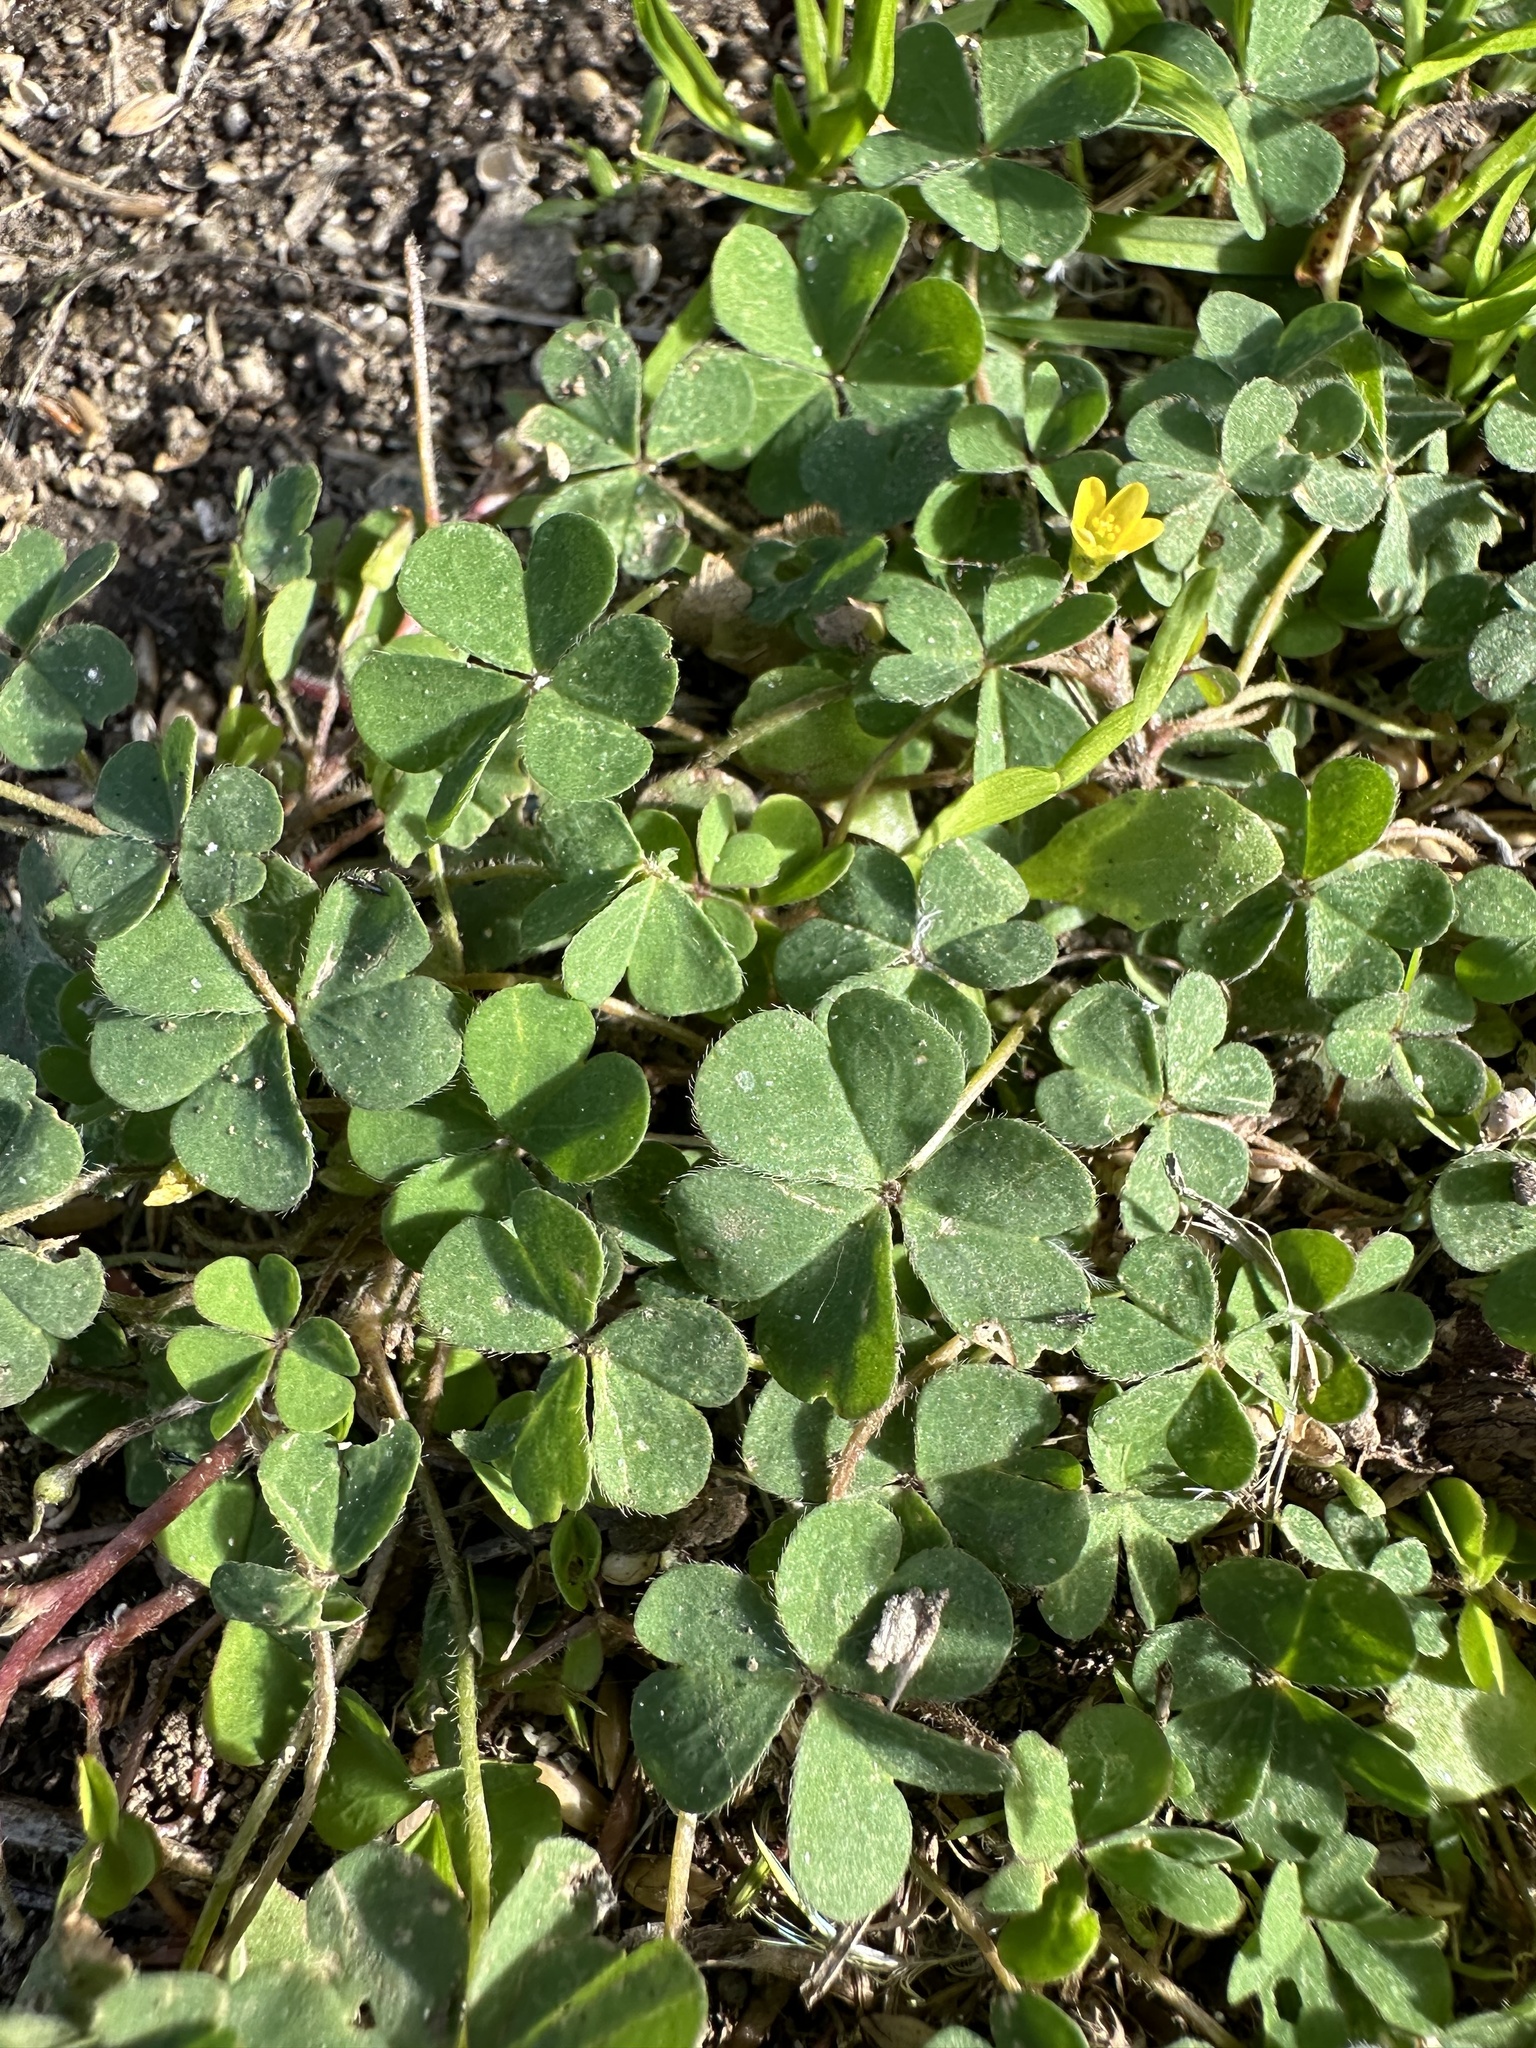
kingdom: Plantae
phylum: Tracheophyta
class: Magnoliopsida
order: Oxalidales
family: Oxalidaceae
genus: Oxalis
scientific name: Oxalis corniculata
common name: Procumbent yellow-sorrel
